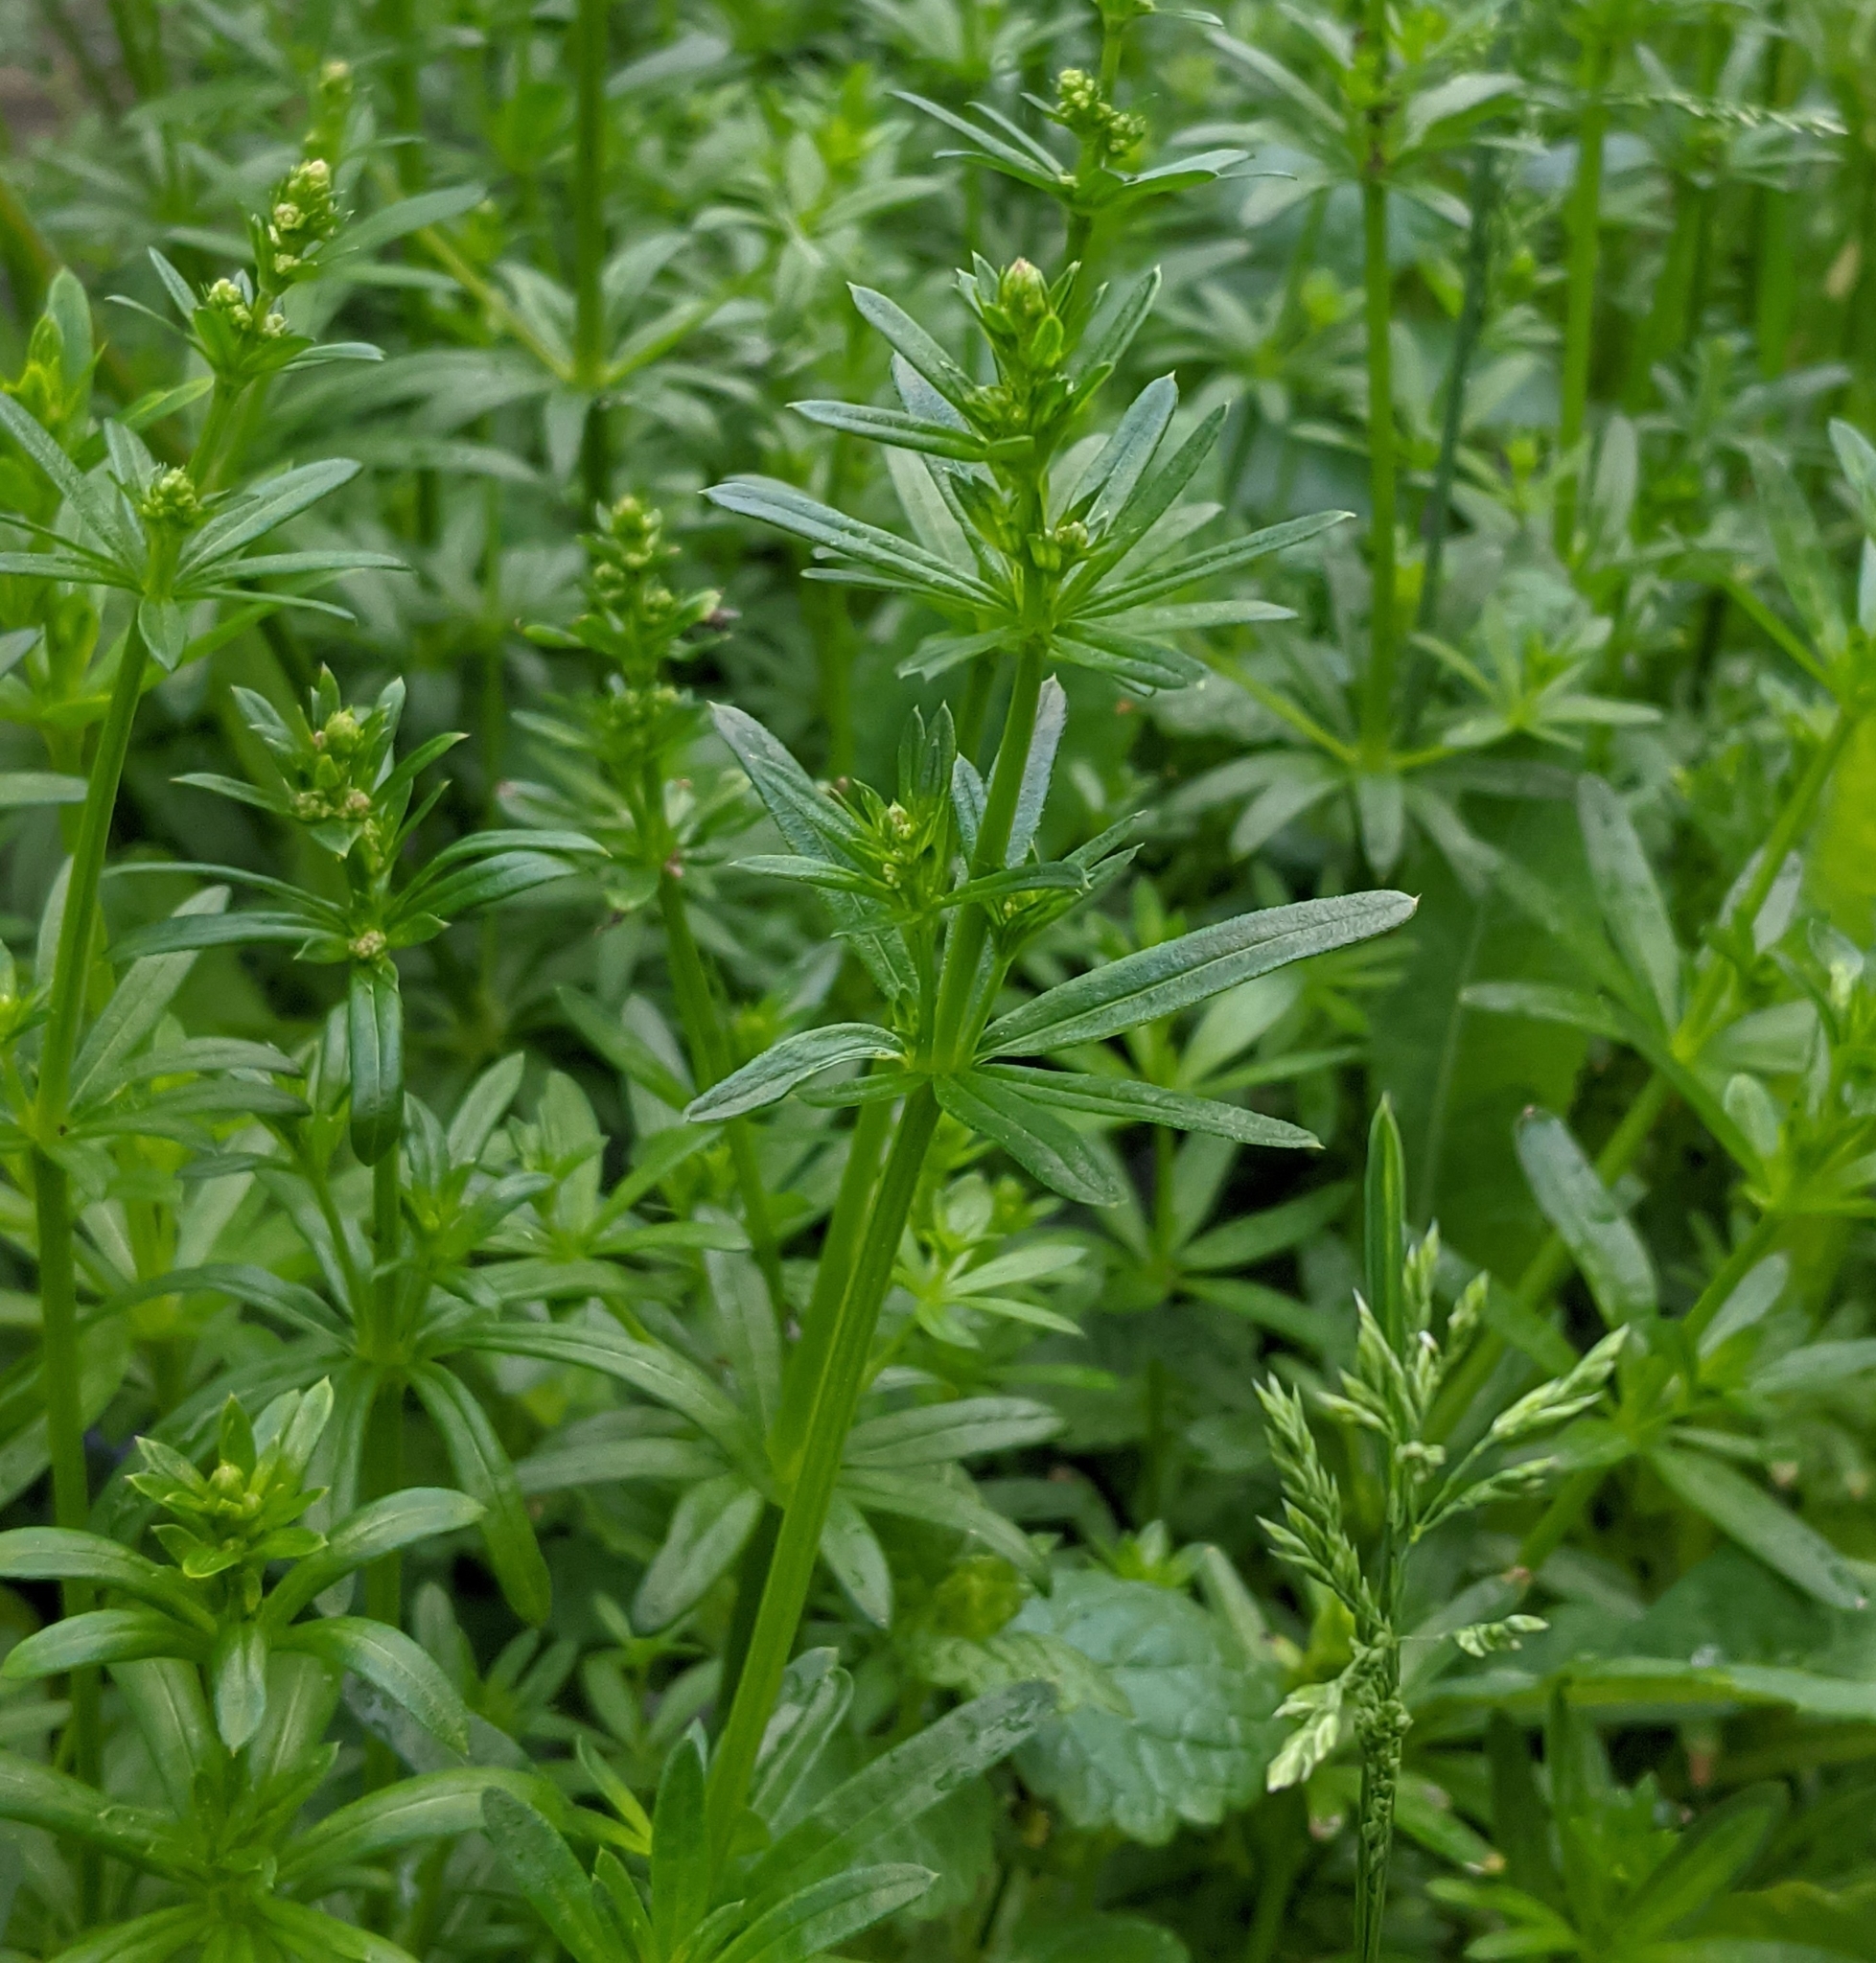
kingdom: Plantae
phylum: Tracheophyta
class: Magnoliopsida
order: Gentianales
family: Rubiaceae
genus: Galium
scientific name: Galium mollugo
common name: Hedge bedstraw
